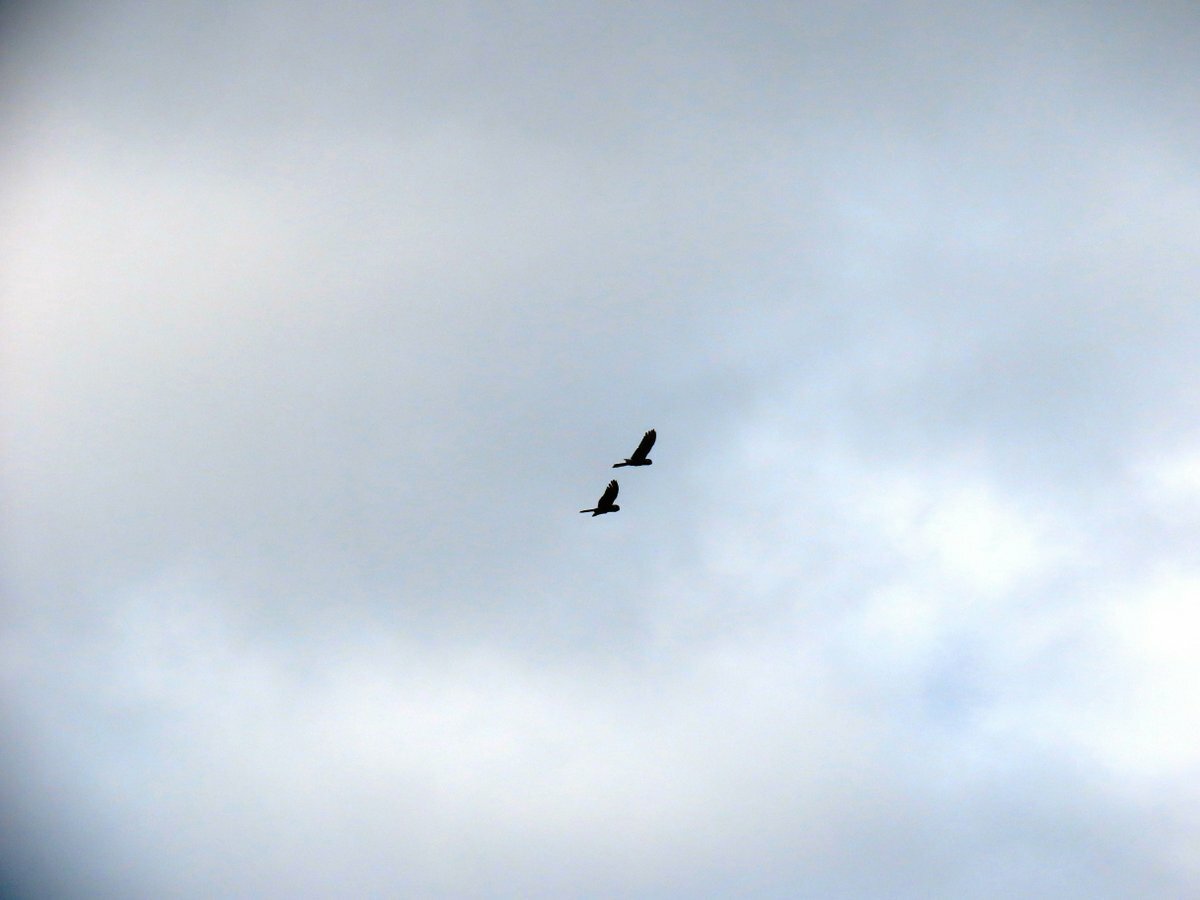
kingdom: Animalia
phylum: Chordata
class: Aves
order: Psittaciformes
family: Cacatuidae
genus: Zanda
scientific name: Zanda funerea
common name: Yellow-tailed black-cockatoo
